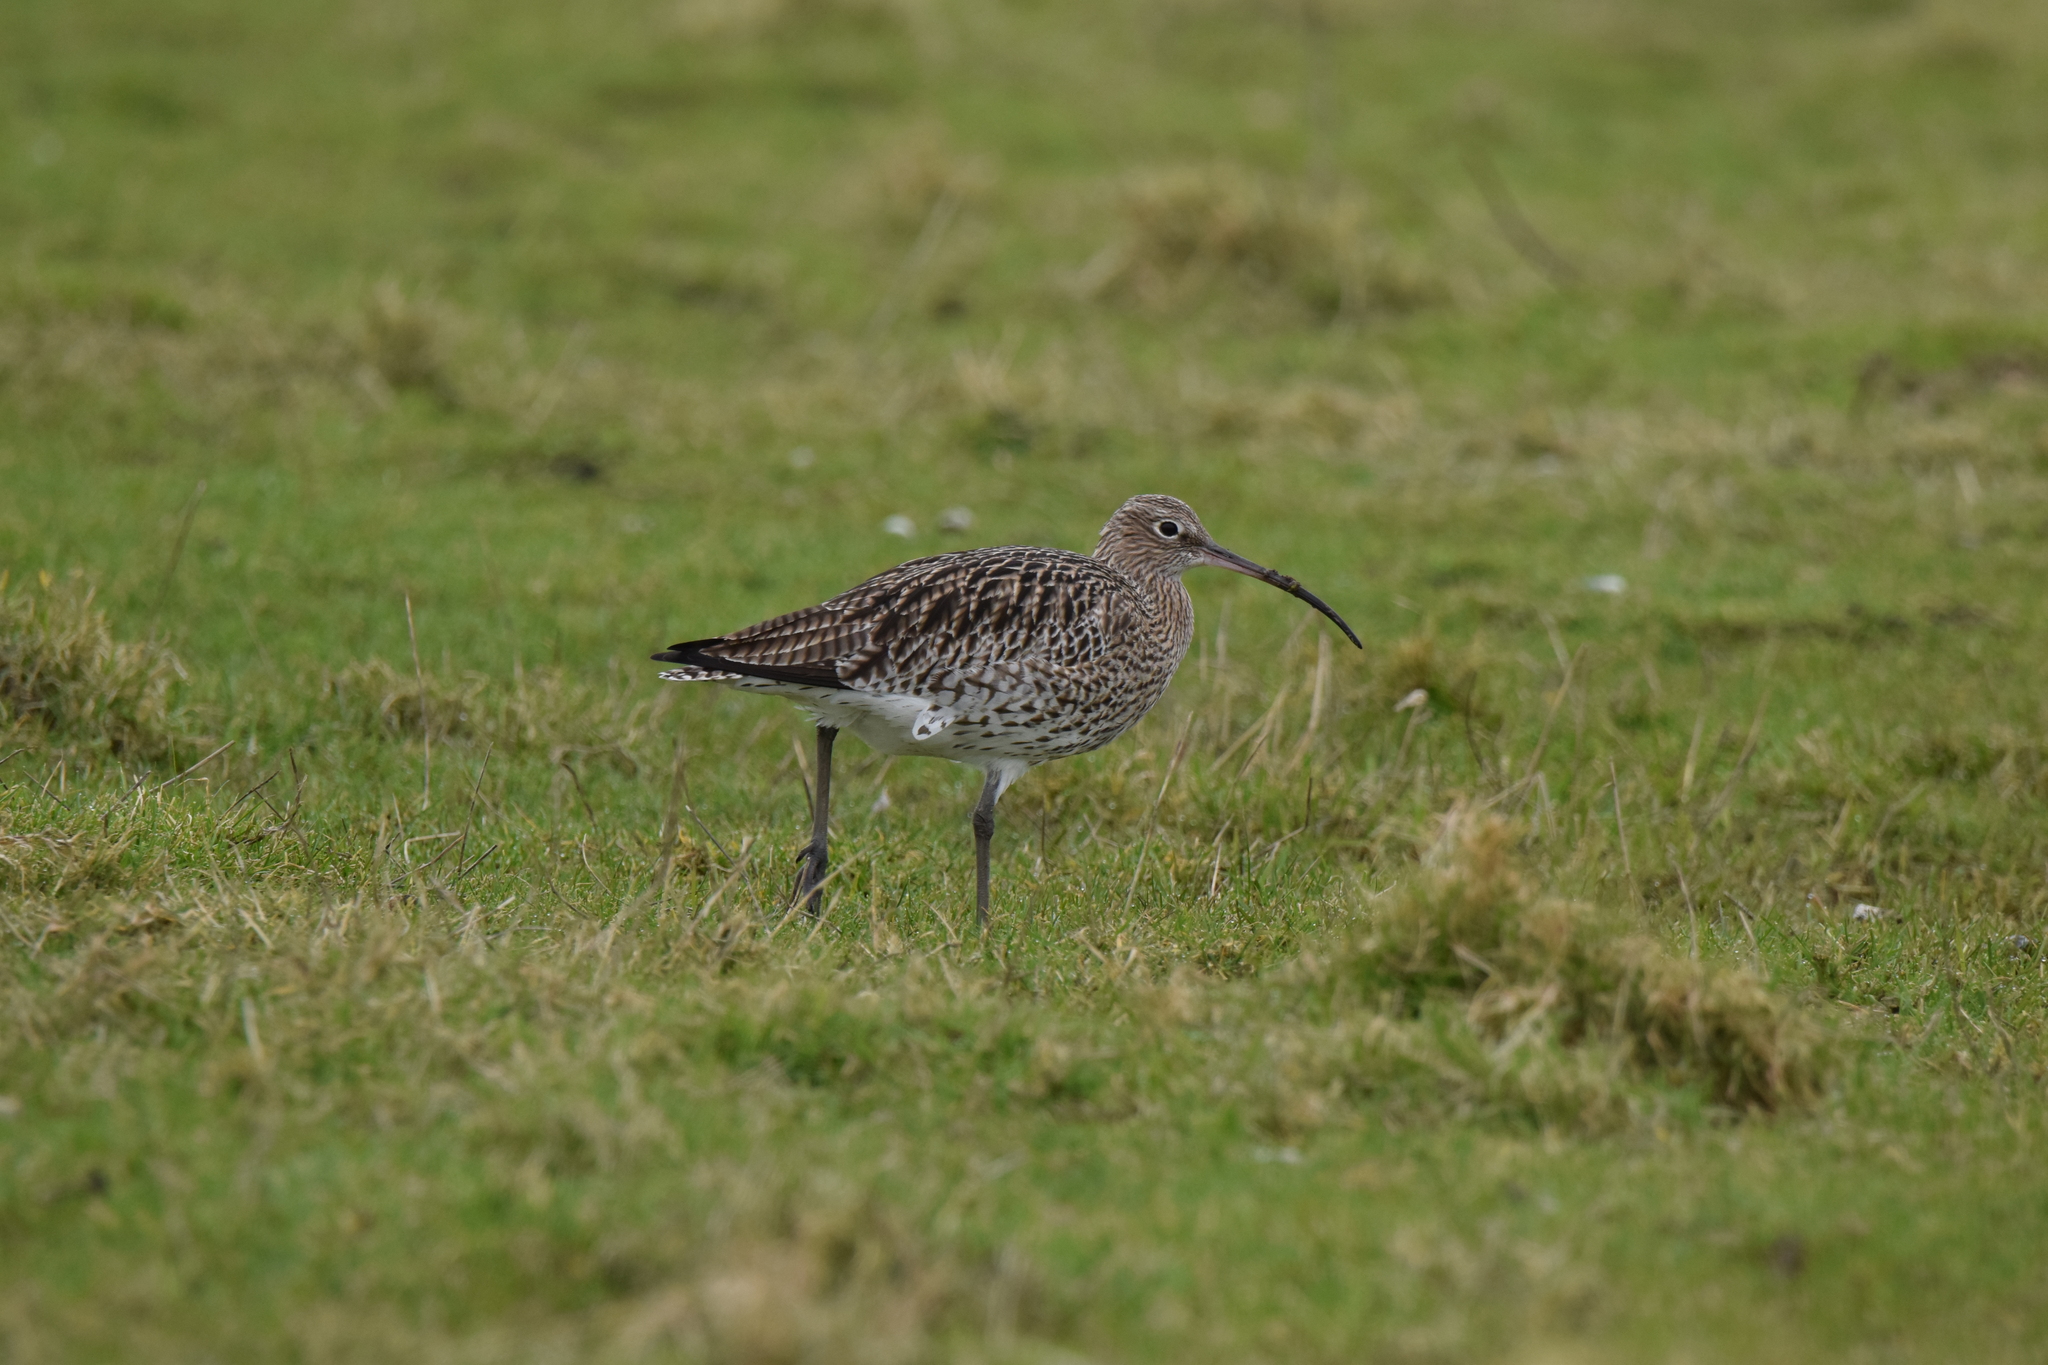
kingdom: Animalia
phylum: Chordata
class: Aves
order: Charadriiformes
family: Scolopacidae
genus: Numenius
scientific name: Numenius arquata
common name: Eurasian curlew
